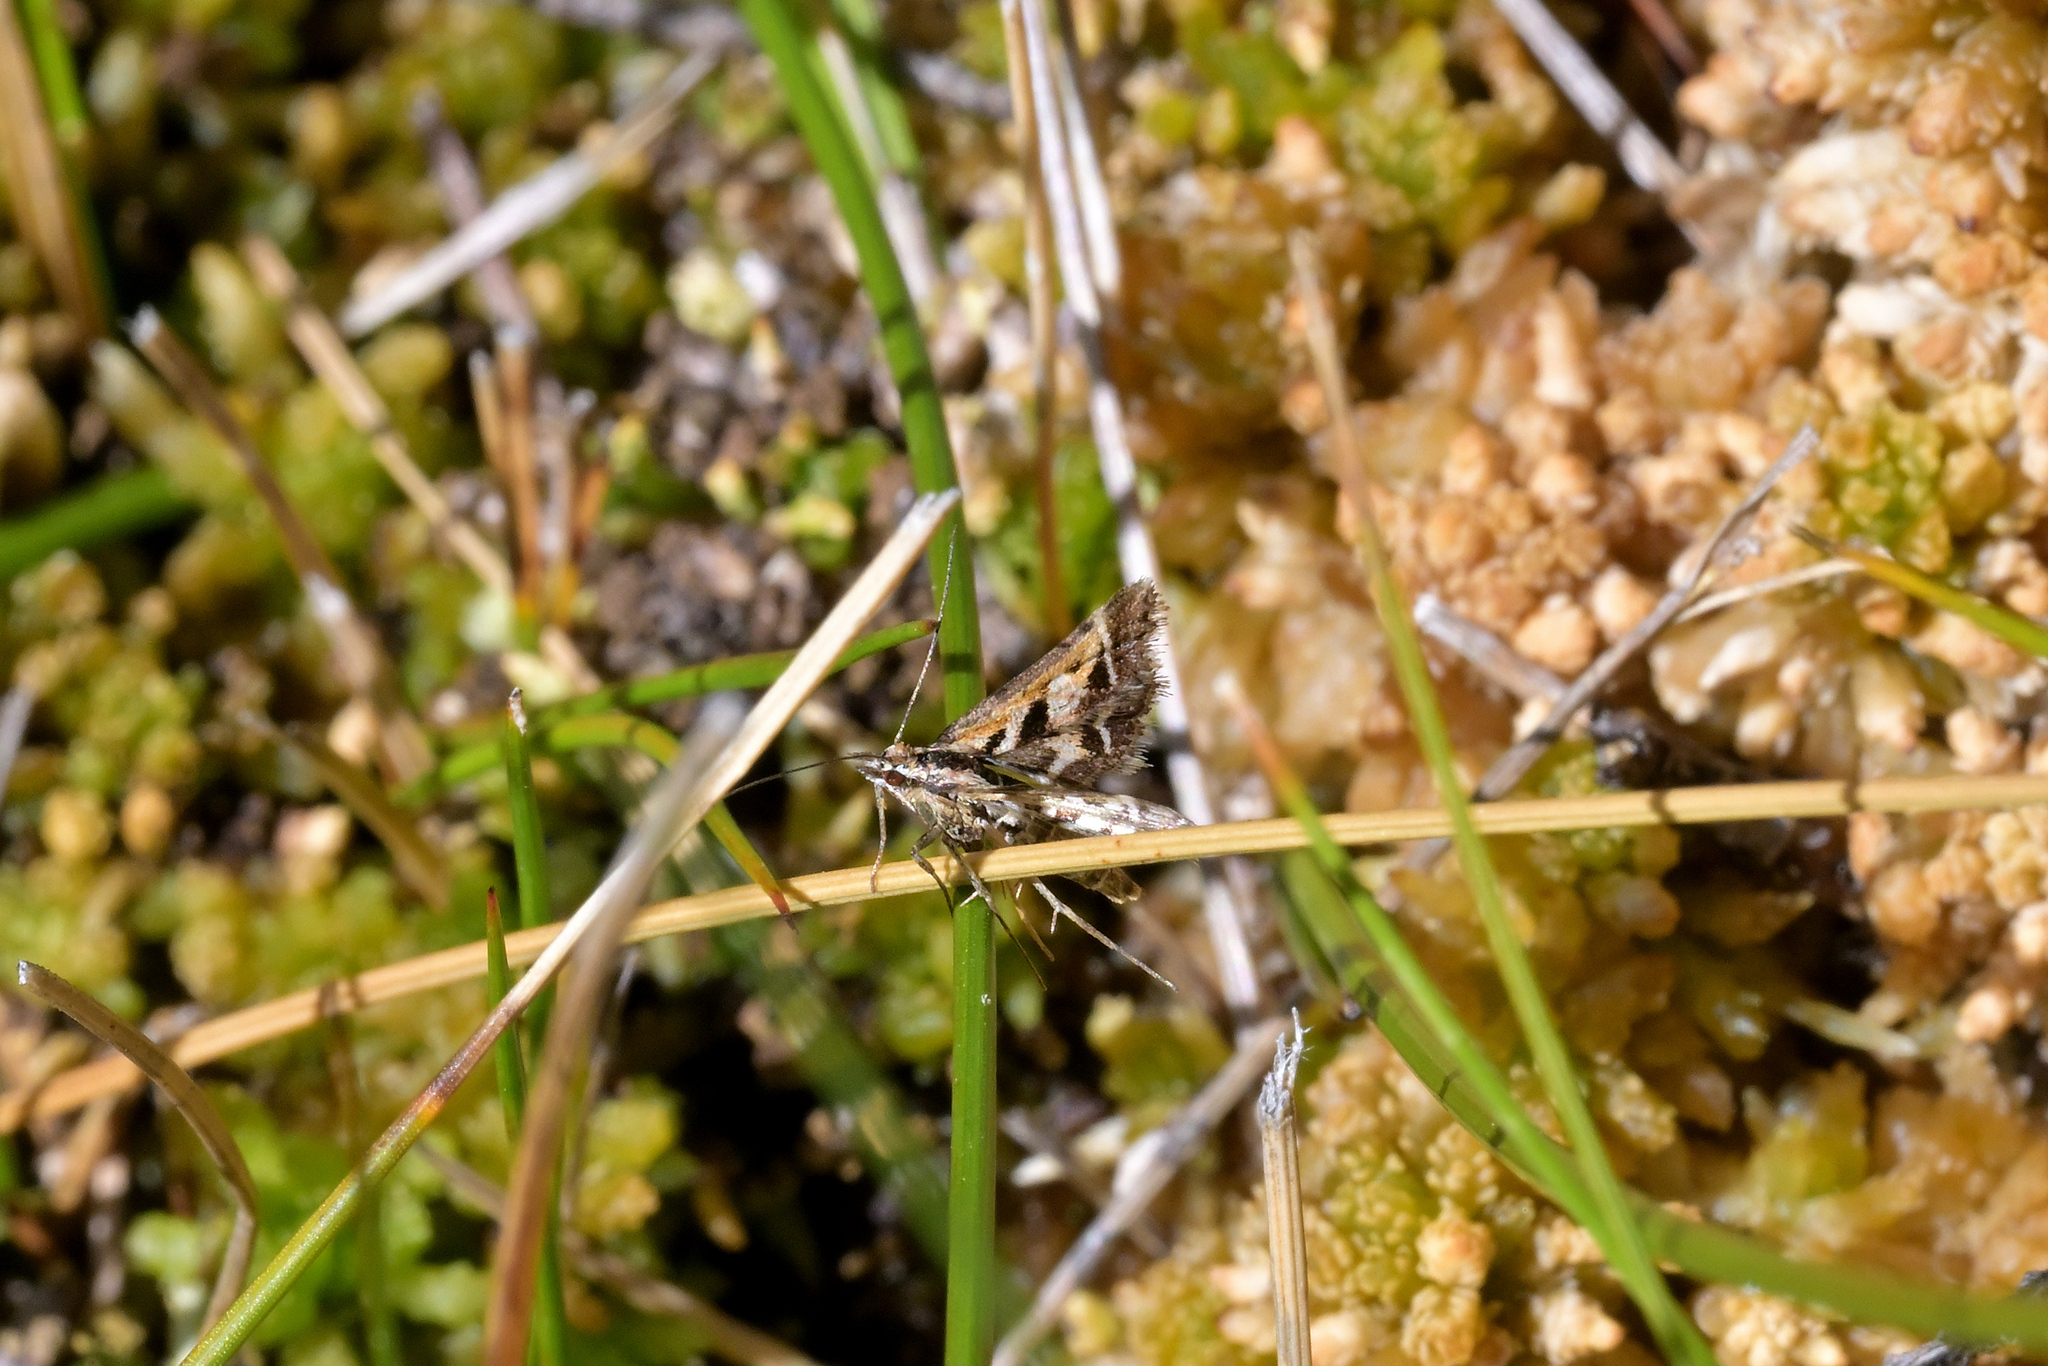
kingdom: Animalia
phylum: Arthropoda
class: Insecta
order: Lepidoptera
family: Crambidae
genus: Diasemia
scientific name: Diasemia grammalis
